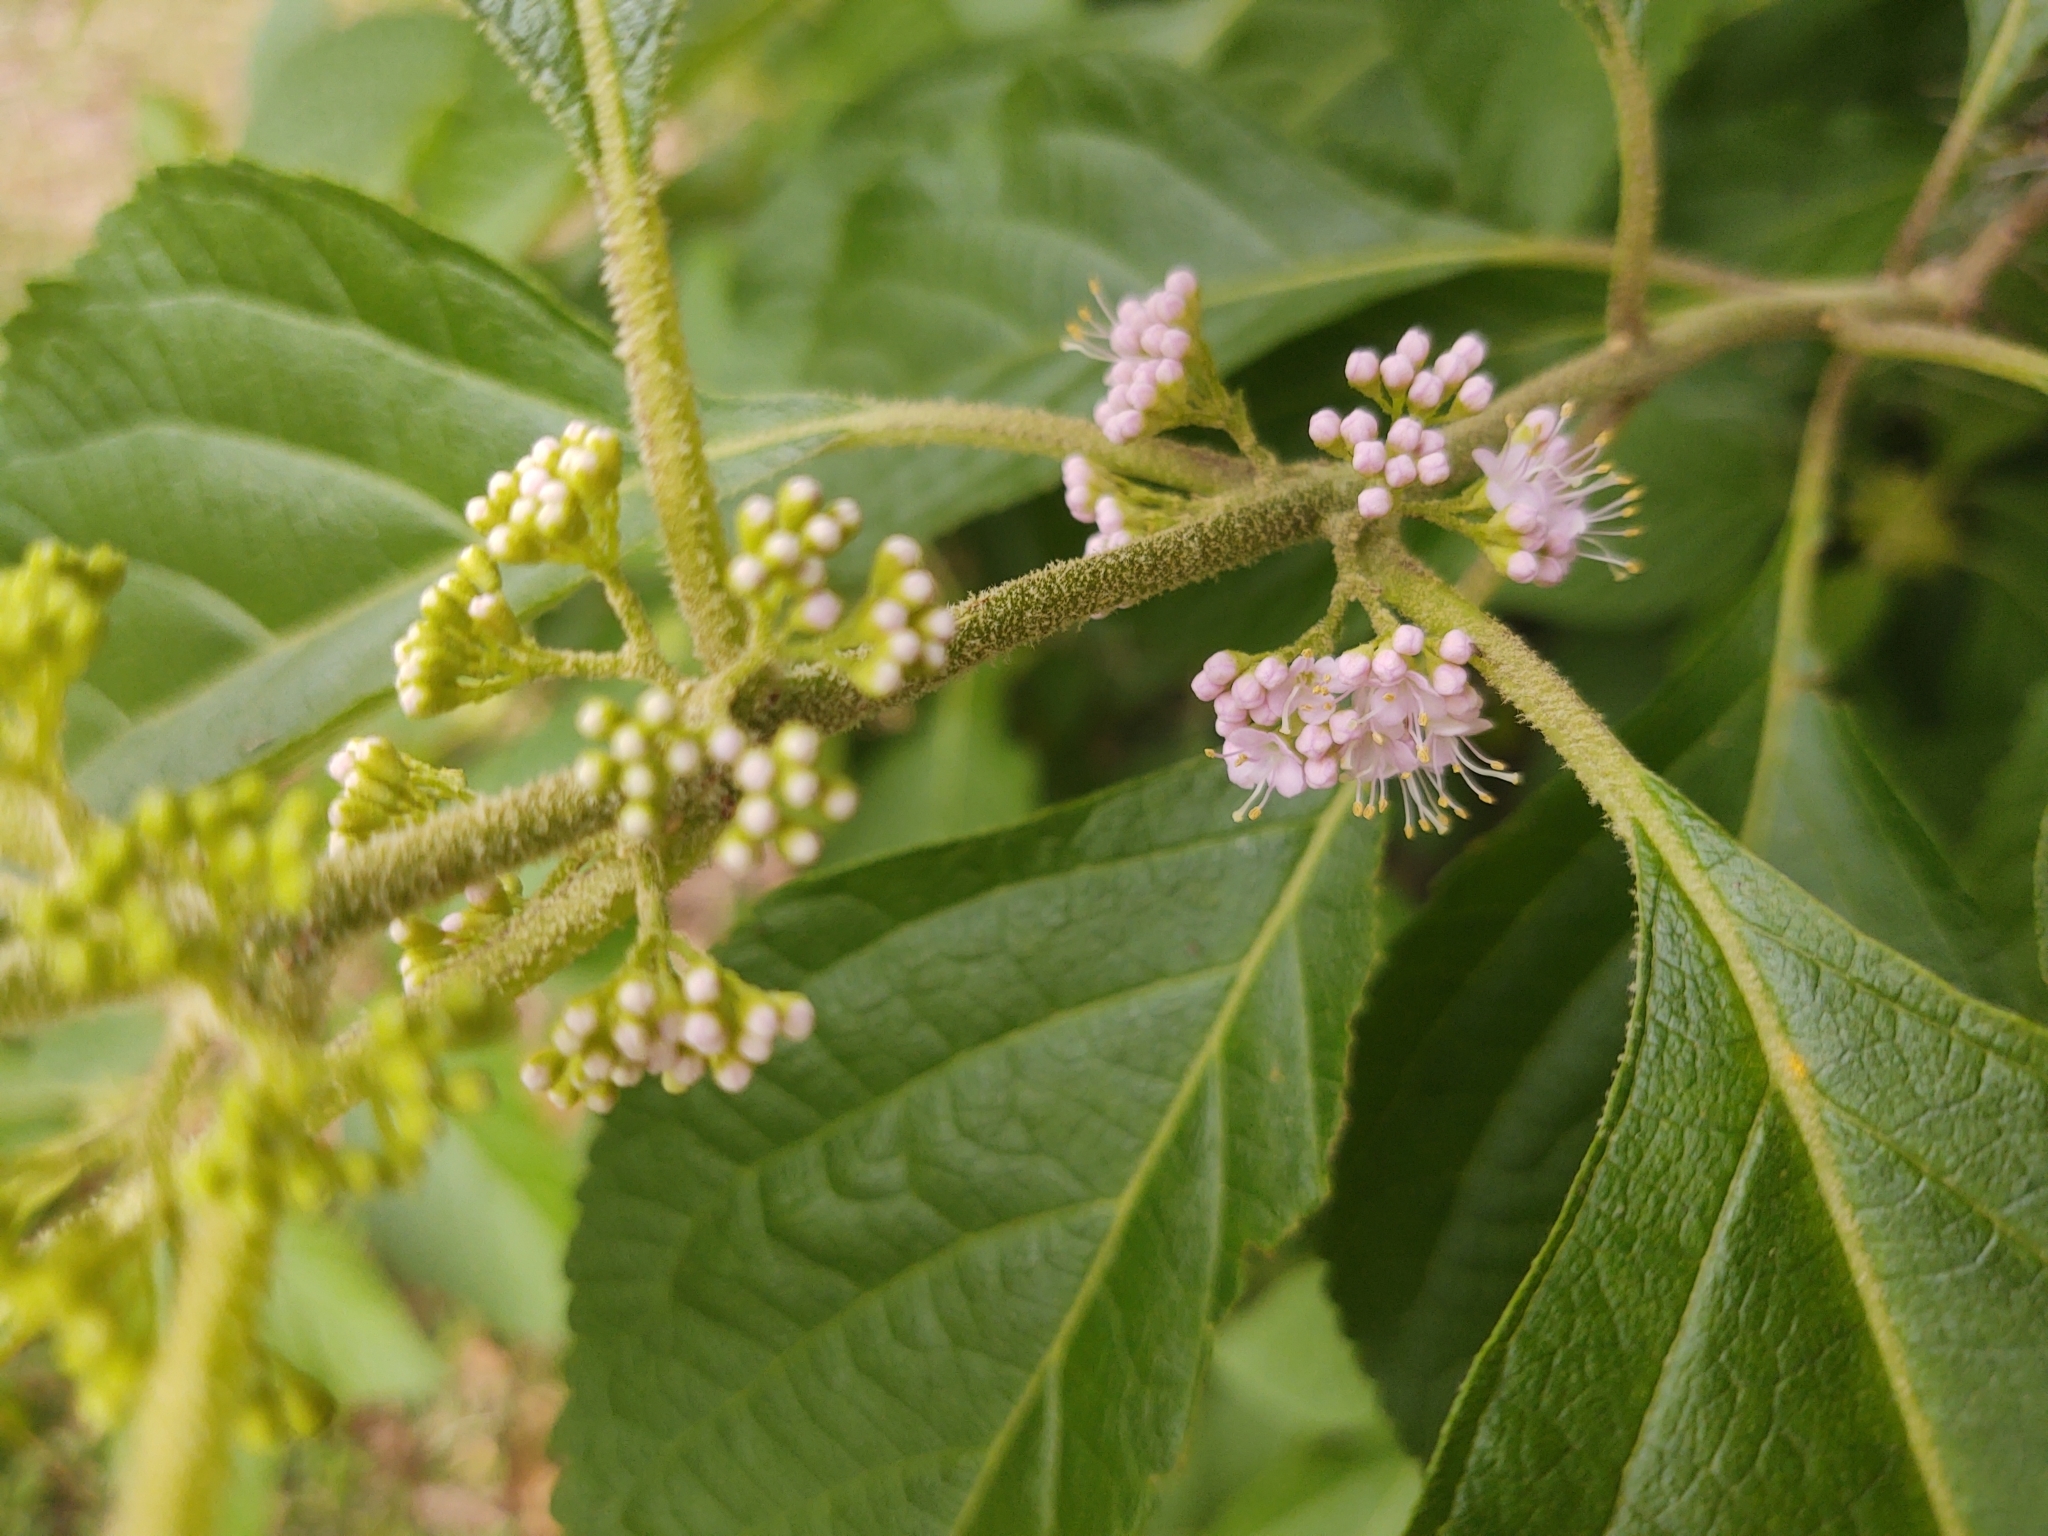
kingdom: Plantae
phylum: Tracheophyta
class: Magnoliopsida
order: Lamiales
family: Lamiaceae
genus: Callicarpa
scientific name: Callicarpa americana
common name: American beautyberry
